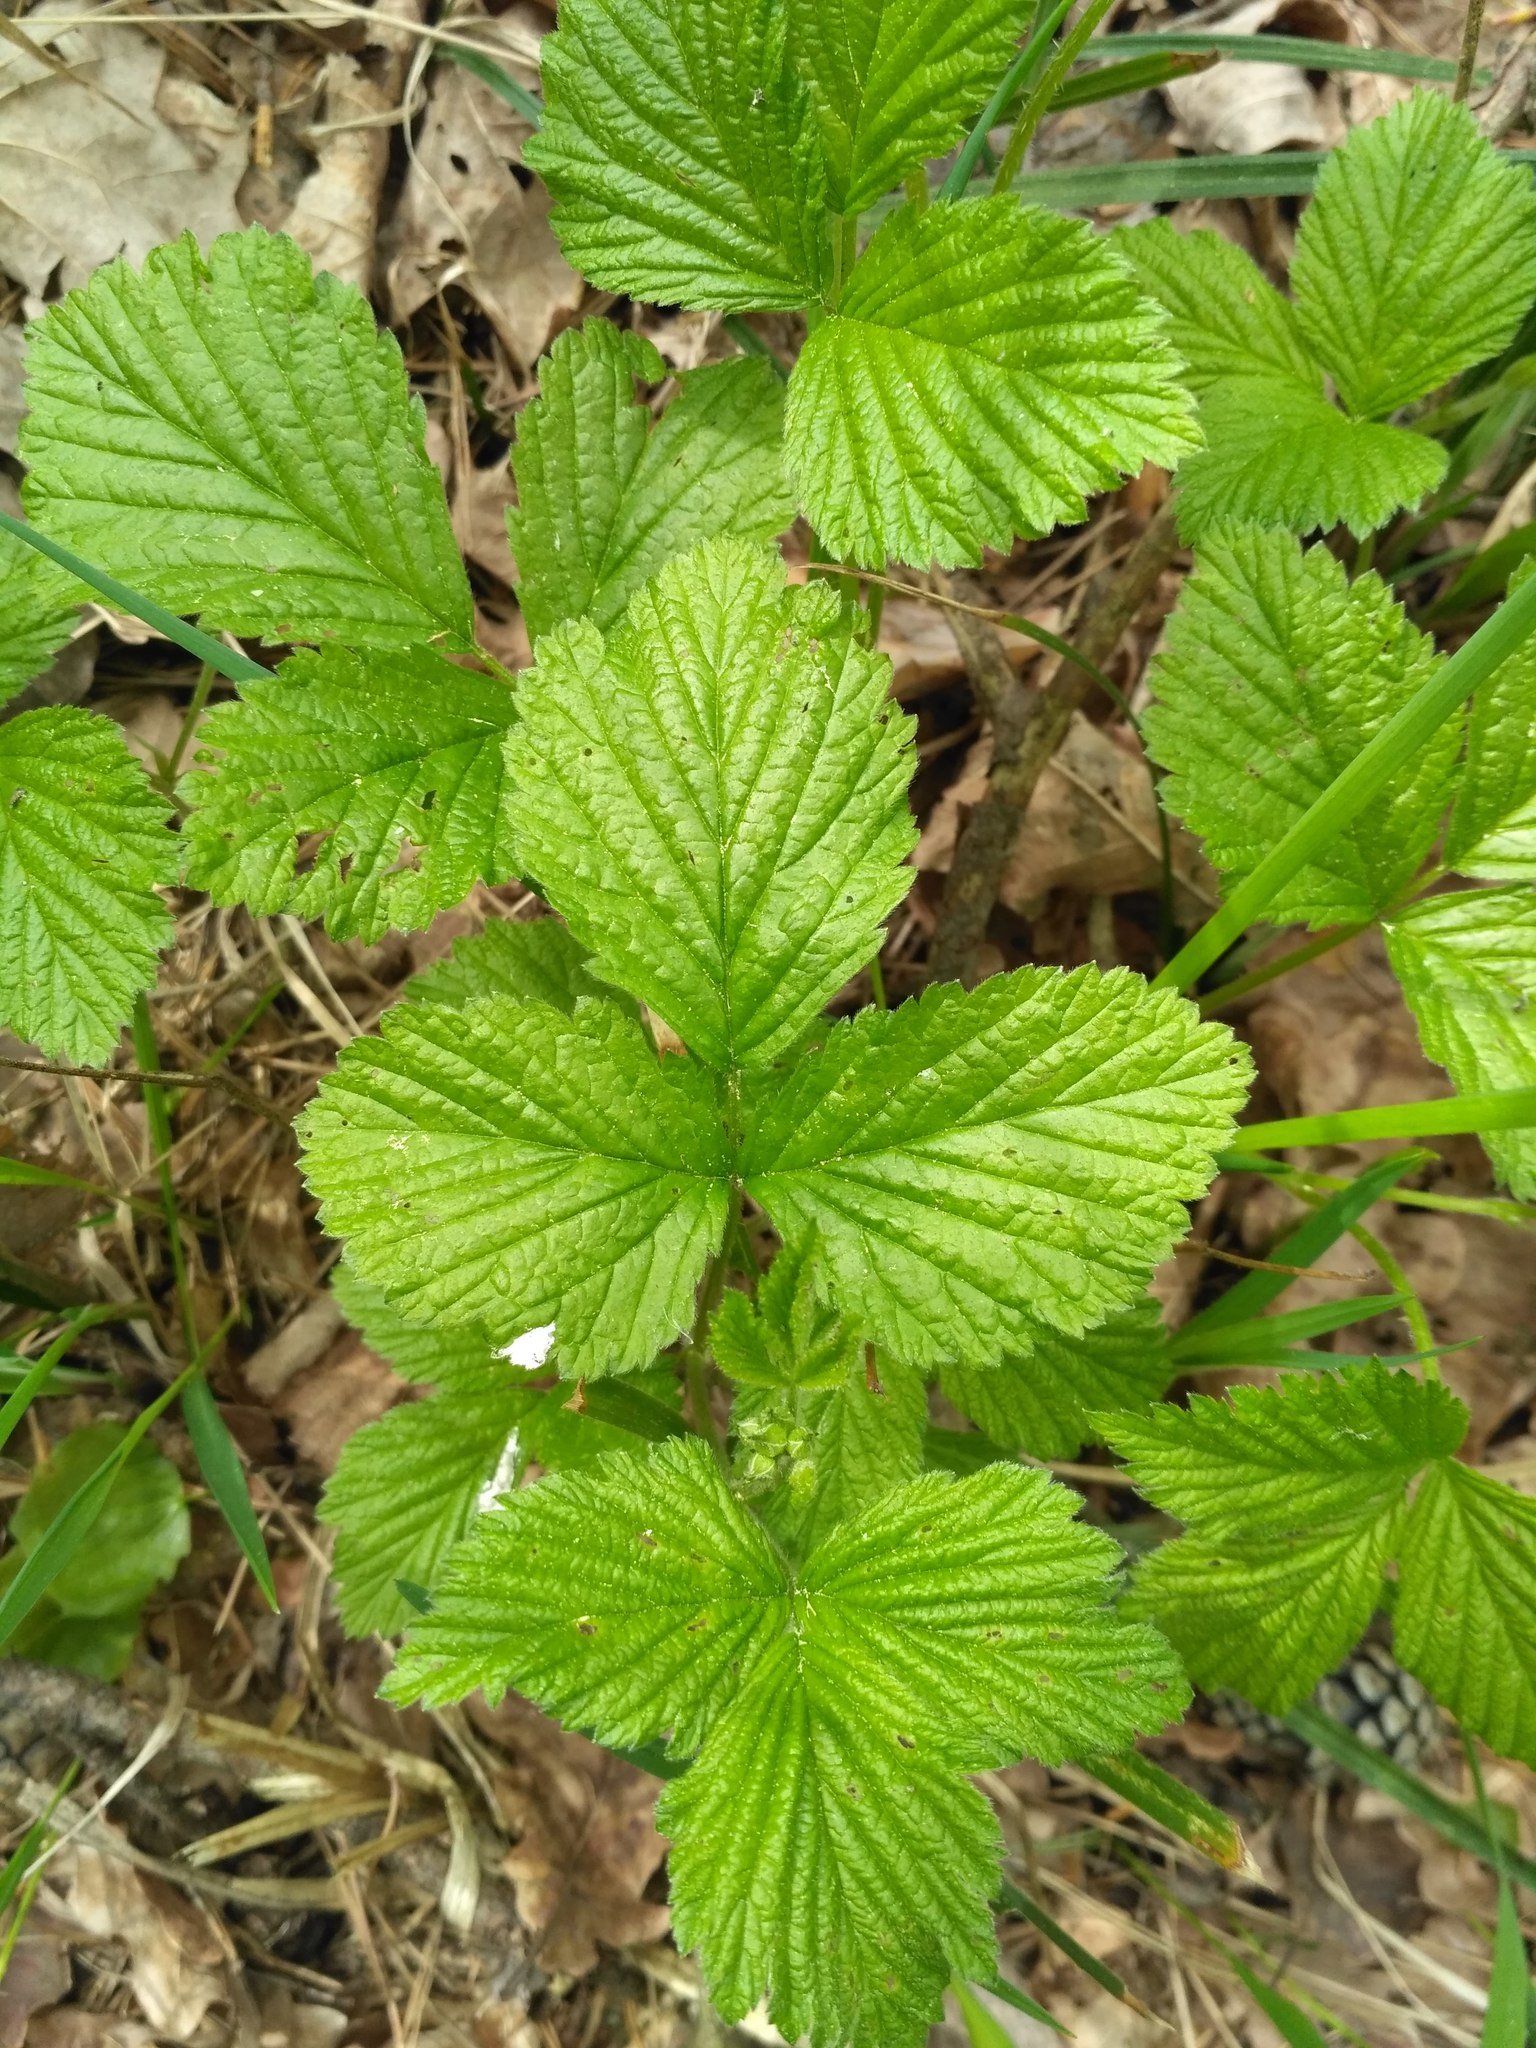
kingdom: Plantae
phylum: Tracheophyta
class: Magnoliopsida
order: Rosales
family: Rosaceae
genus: Rubus
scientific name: Rubus saxatilis
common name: Stone bramble
